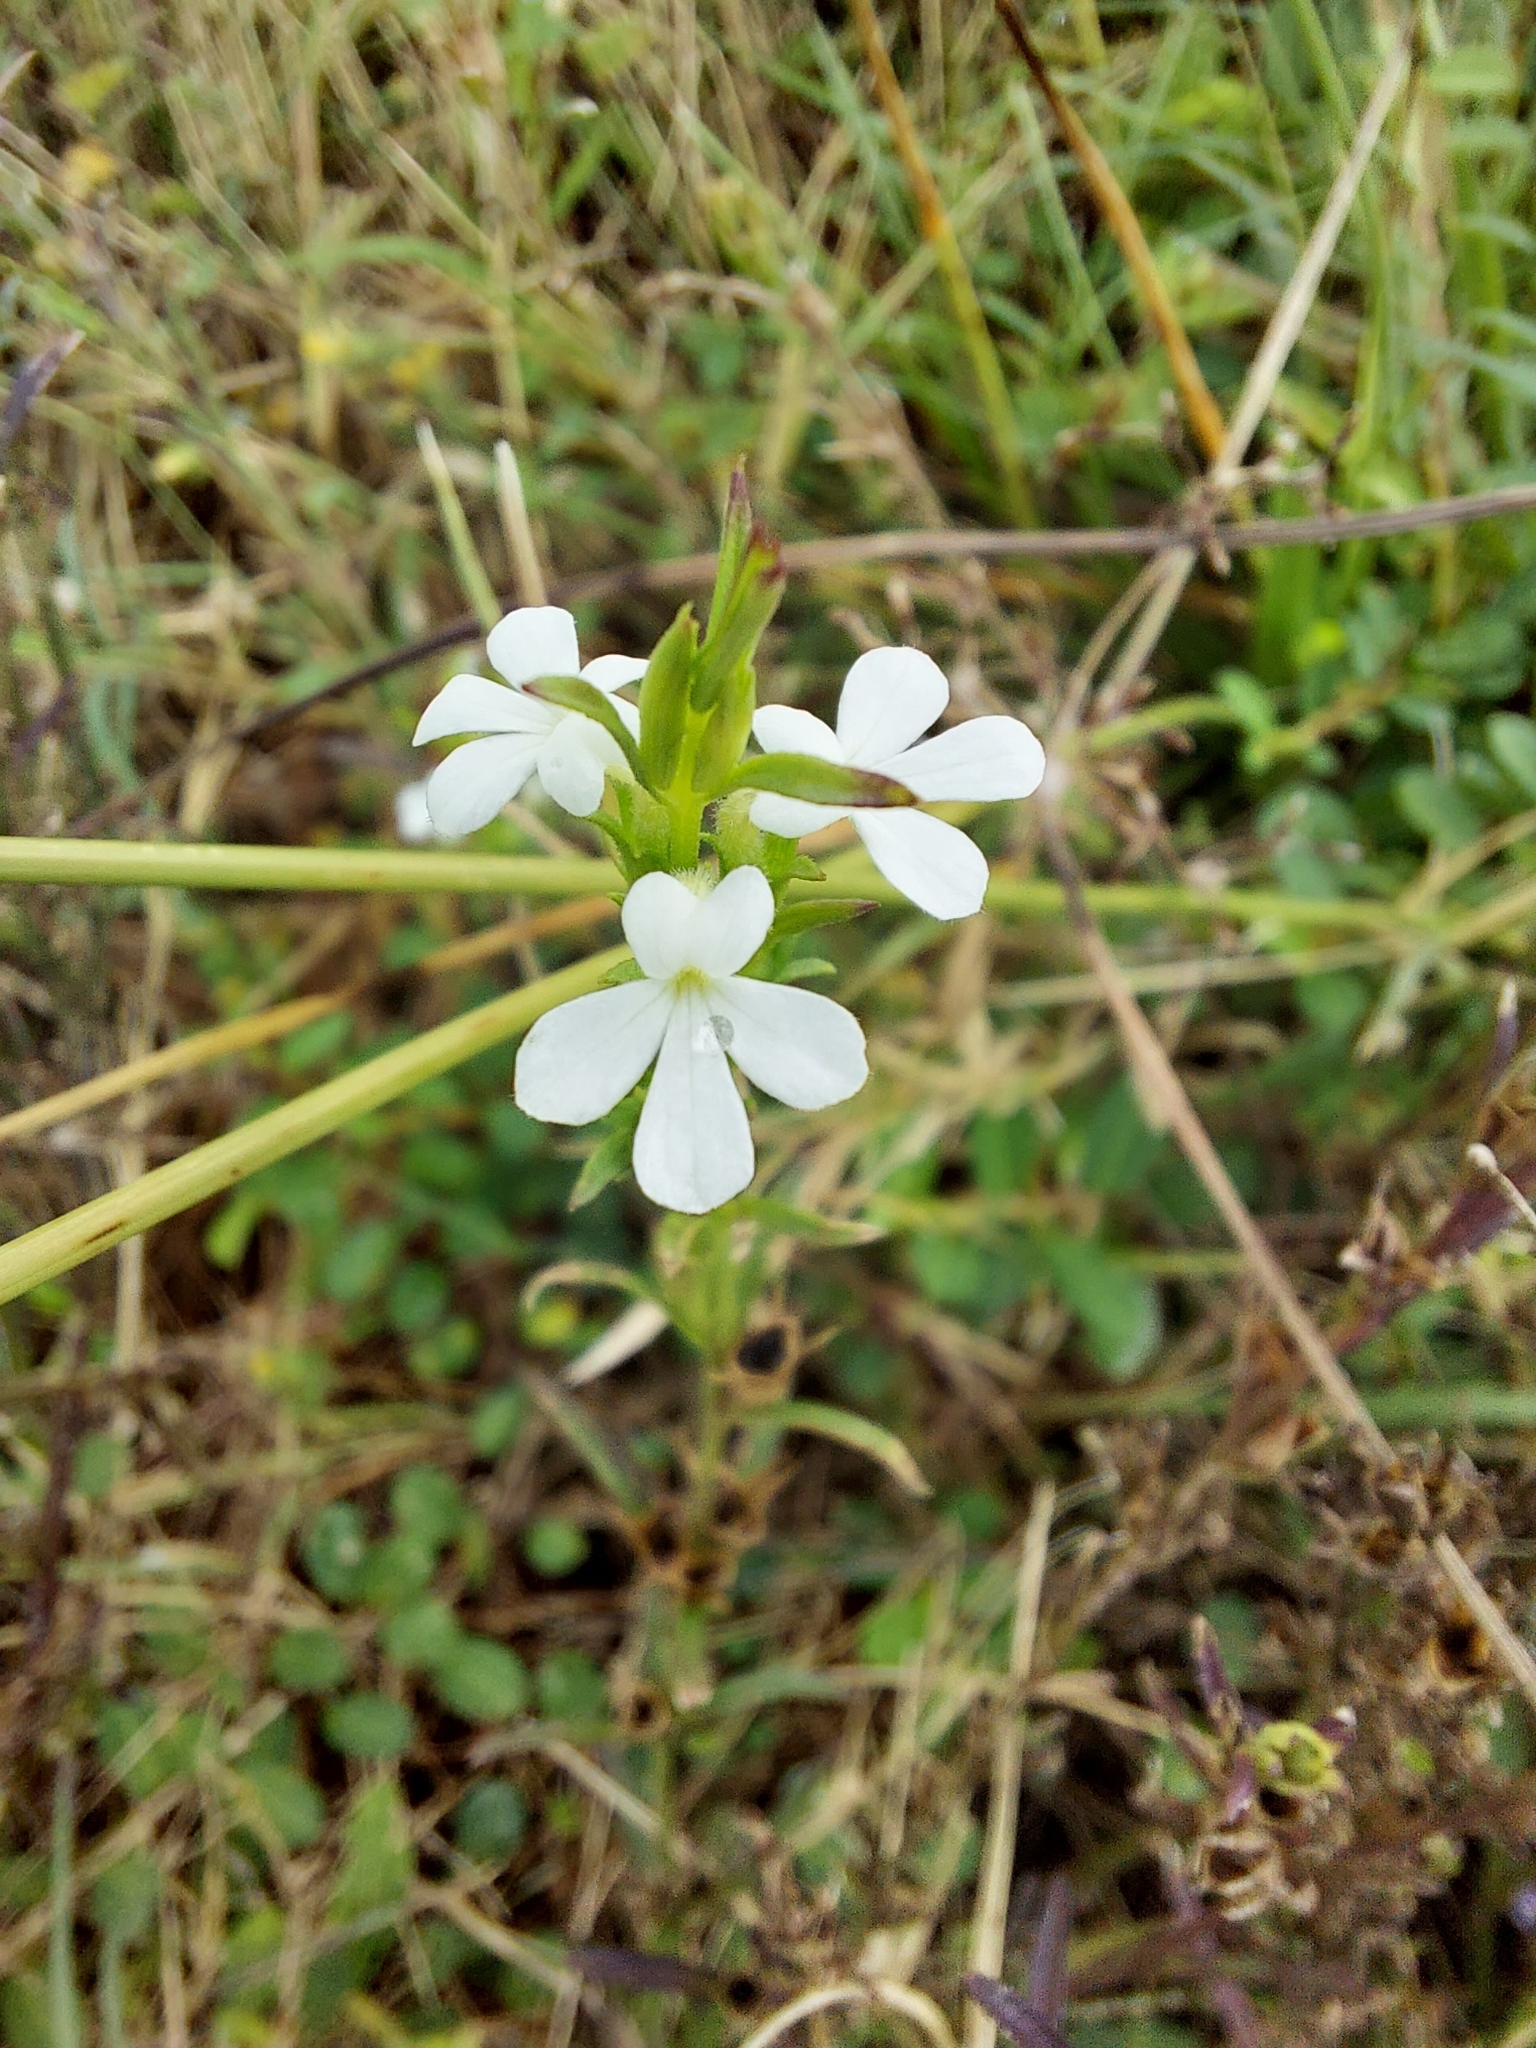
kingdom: Plantae
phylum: Tracheophyta
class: Magnoliopsida
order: Lamiales
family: Orobanchaceae
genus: Striga
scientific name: Striga asiatica
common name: Asiatic witchweed
